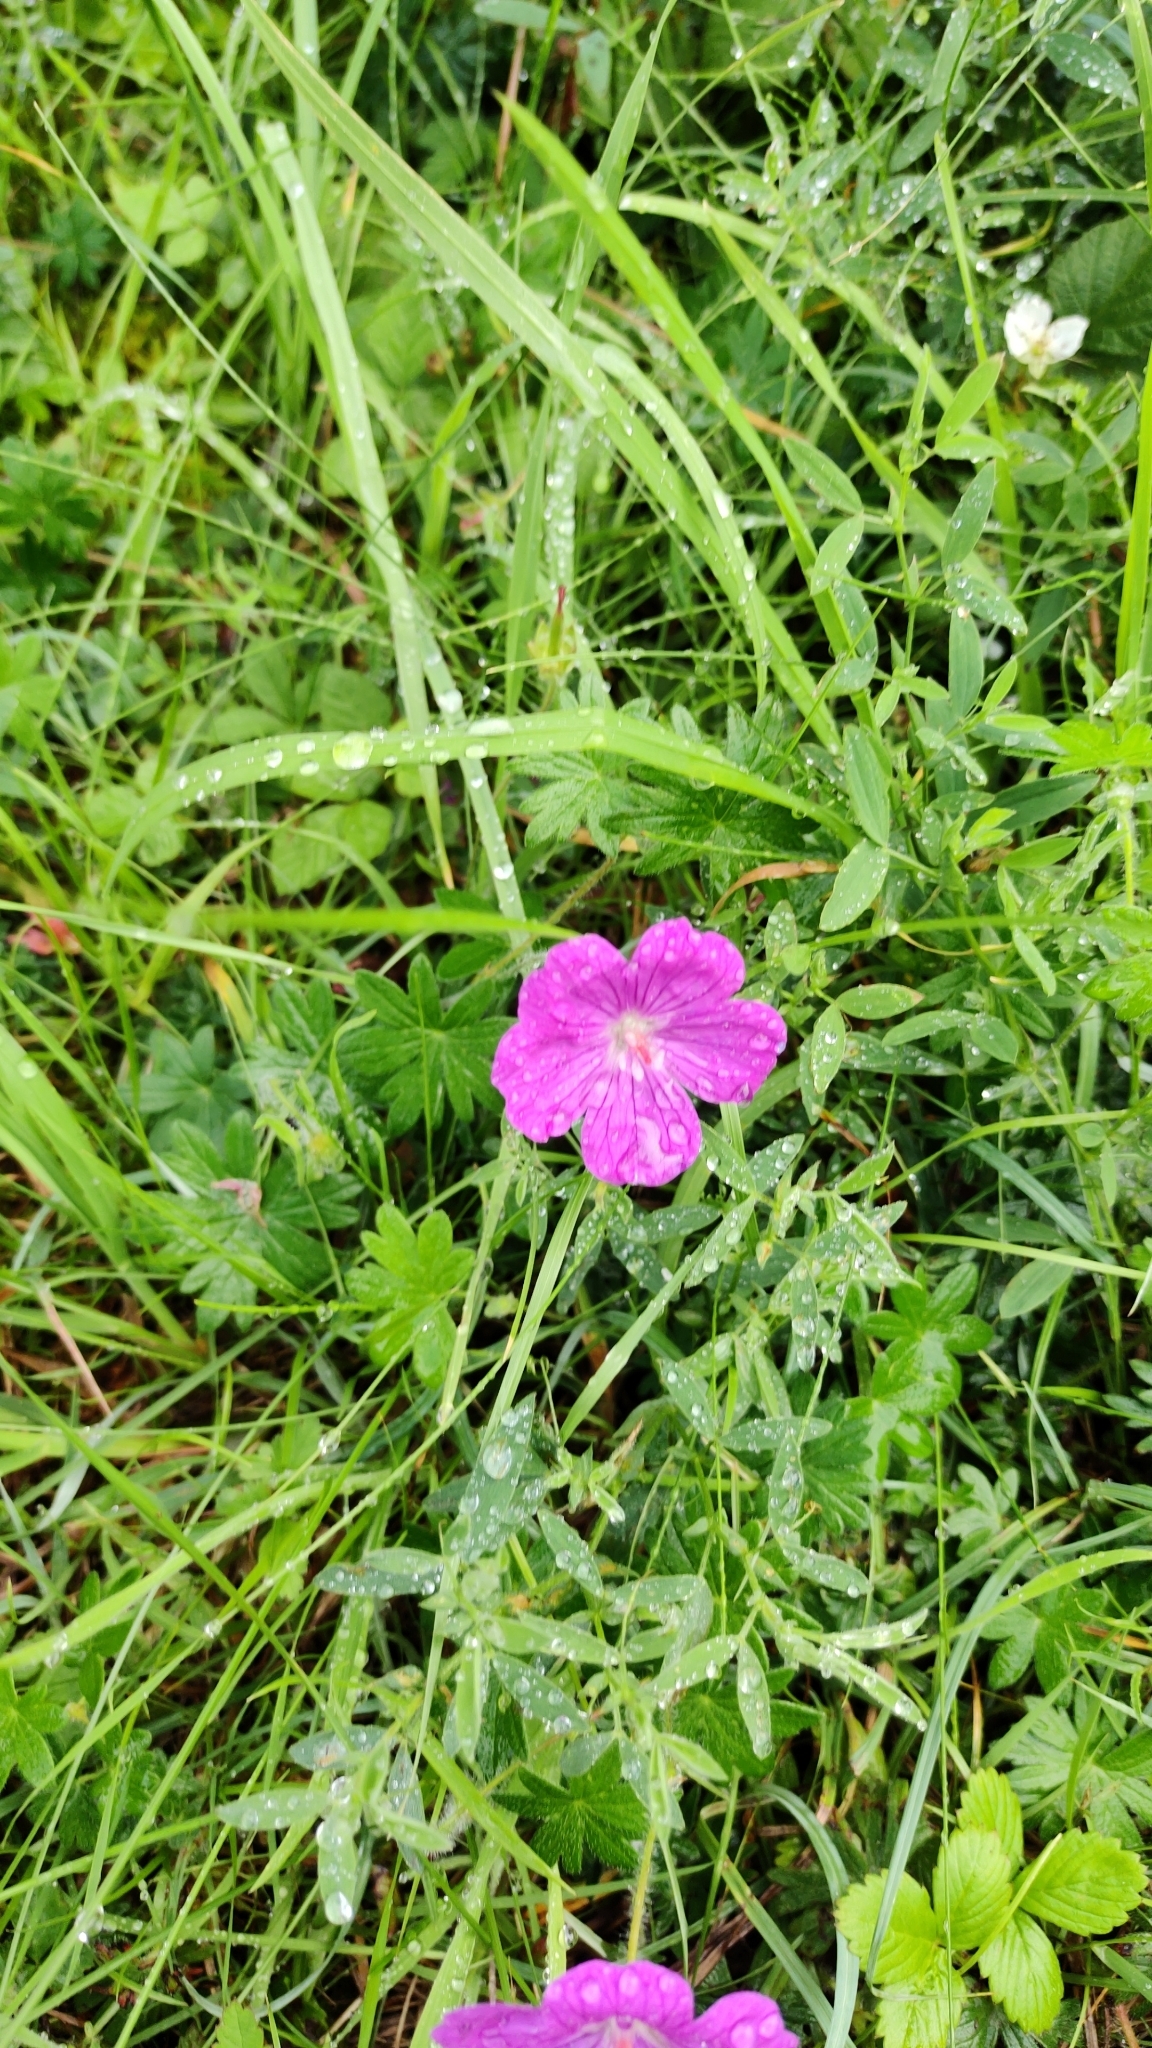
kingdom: Plantae
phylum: Tracheophyta
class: Magnoliopsida
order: Geraniales
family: Geraniaceae
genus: Geranium
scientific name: Geranium sanguineum
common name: Bloody crane's-bill
